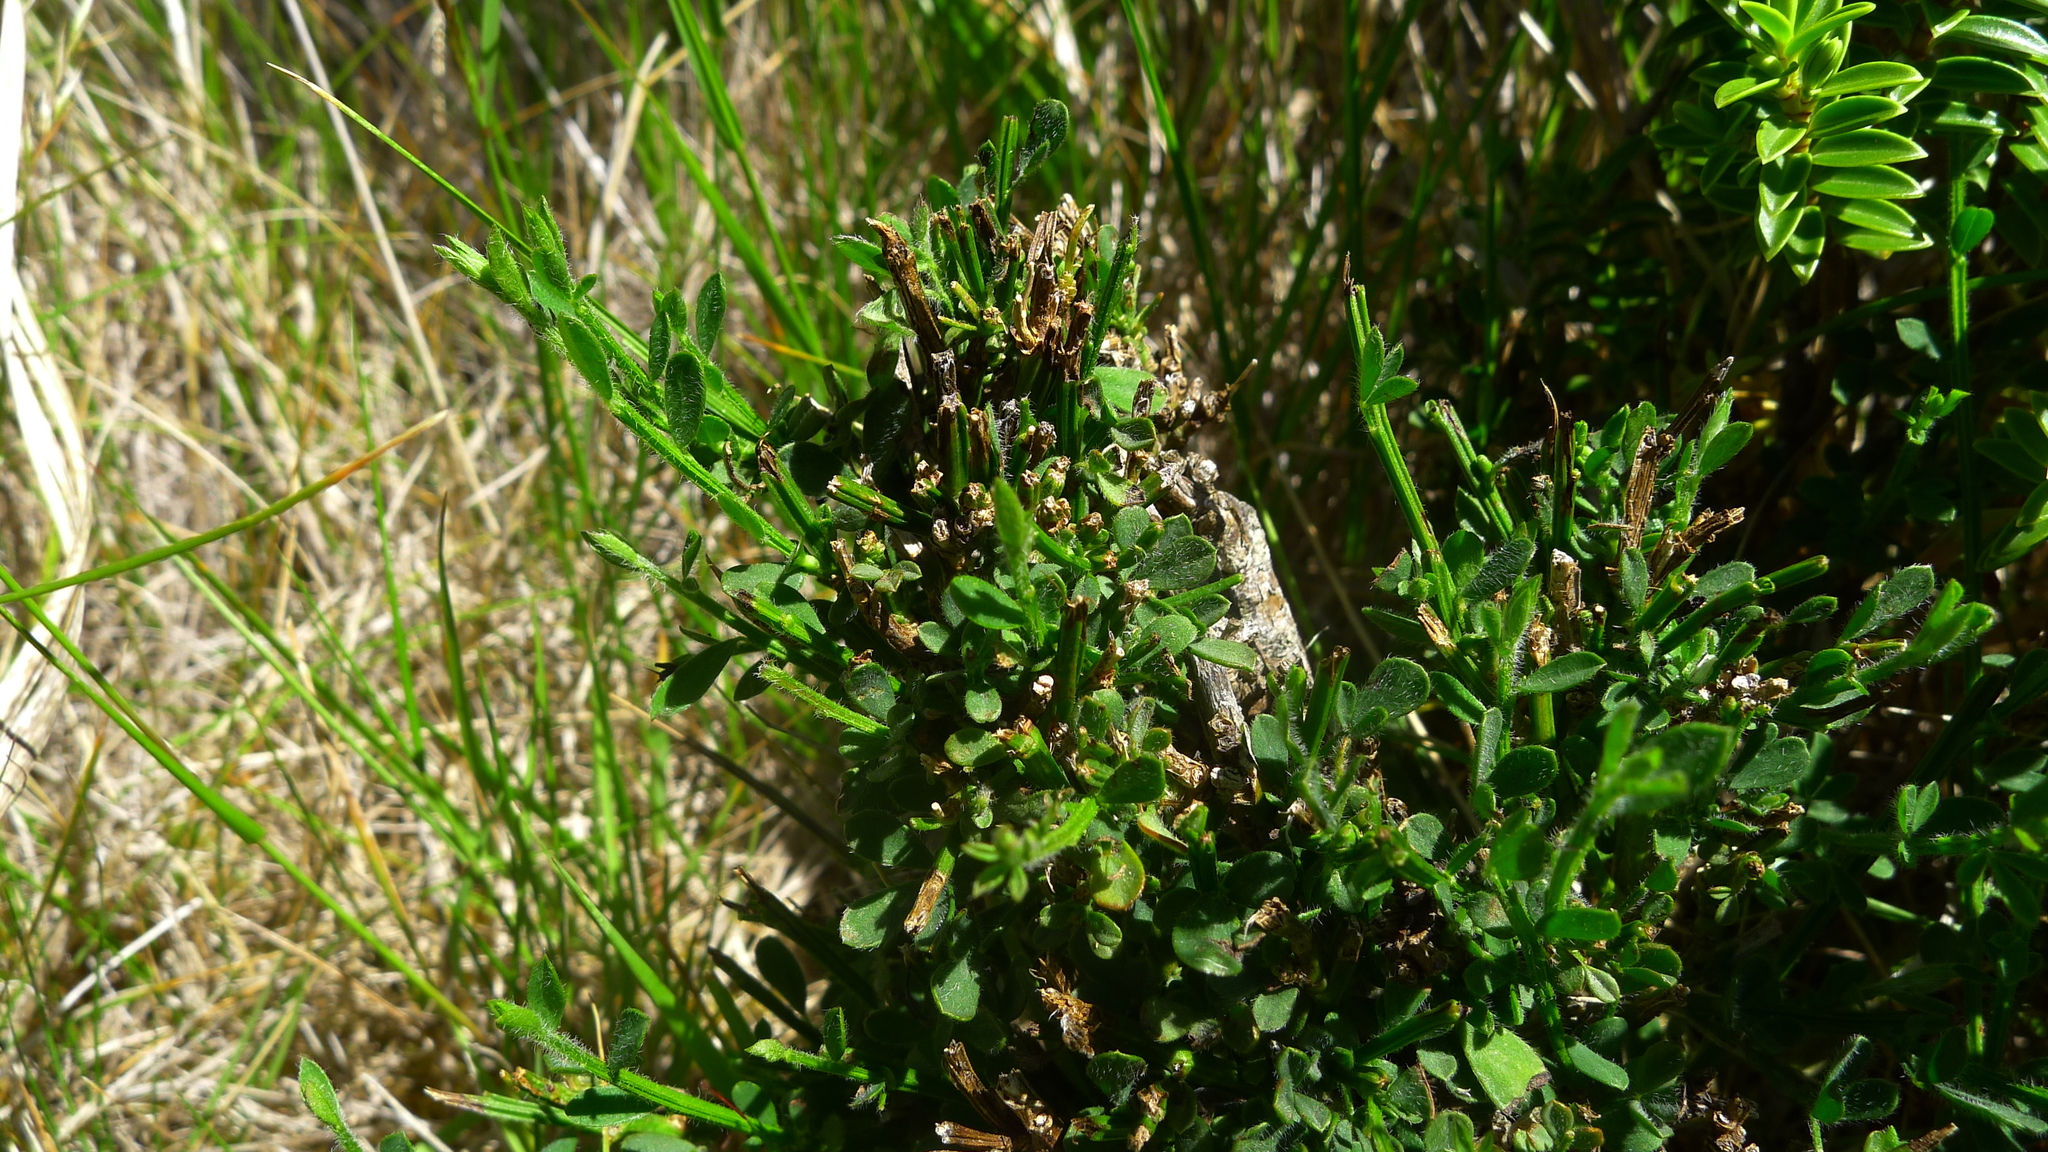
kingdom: Plantae
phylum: Tracheophyta
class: Magnoliopsida
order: Fabales
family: Fabaceae
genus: Cytisus
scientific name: Cytisus scoparius
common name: Scotch broom
